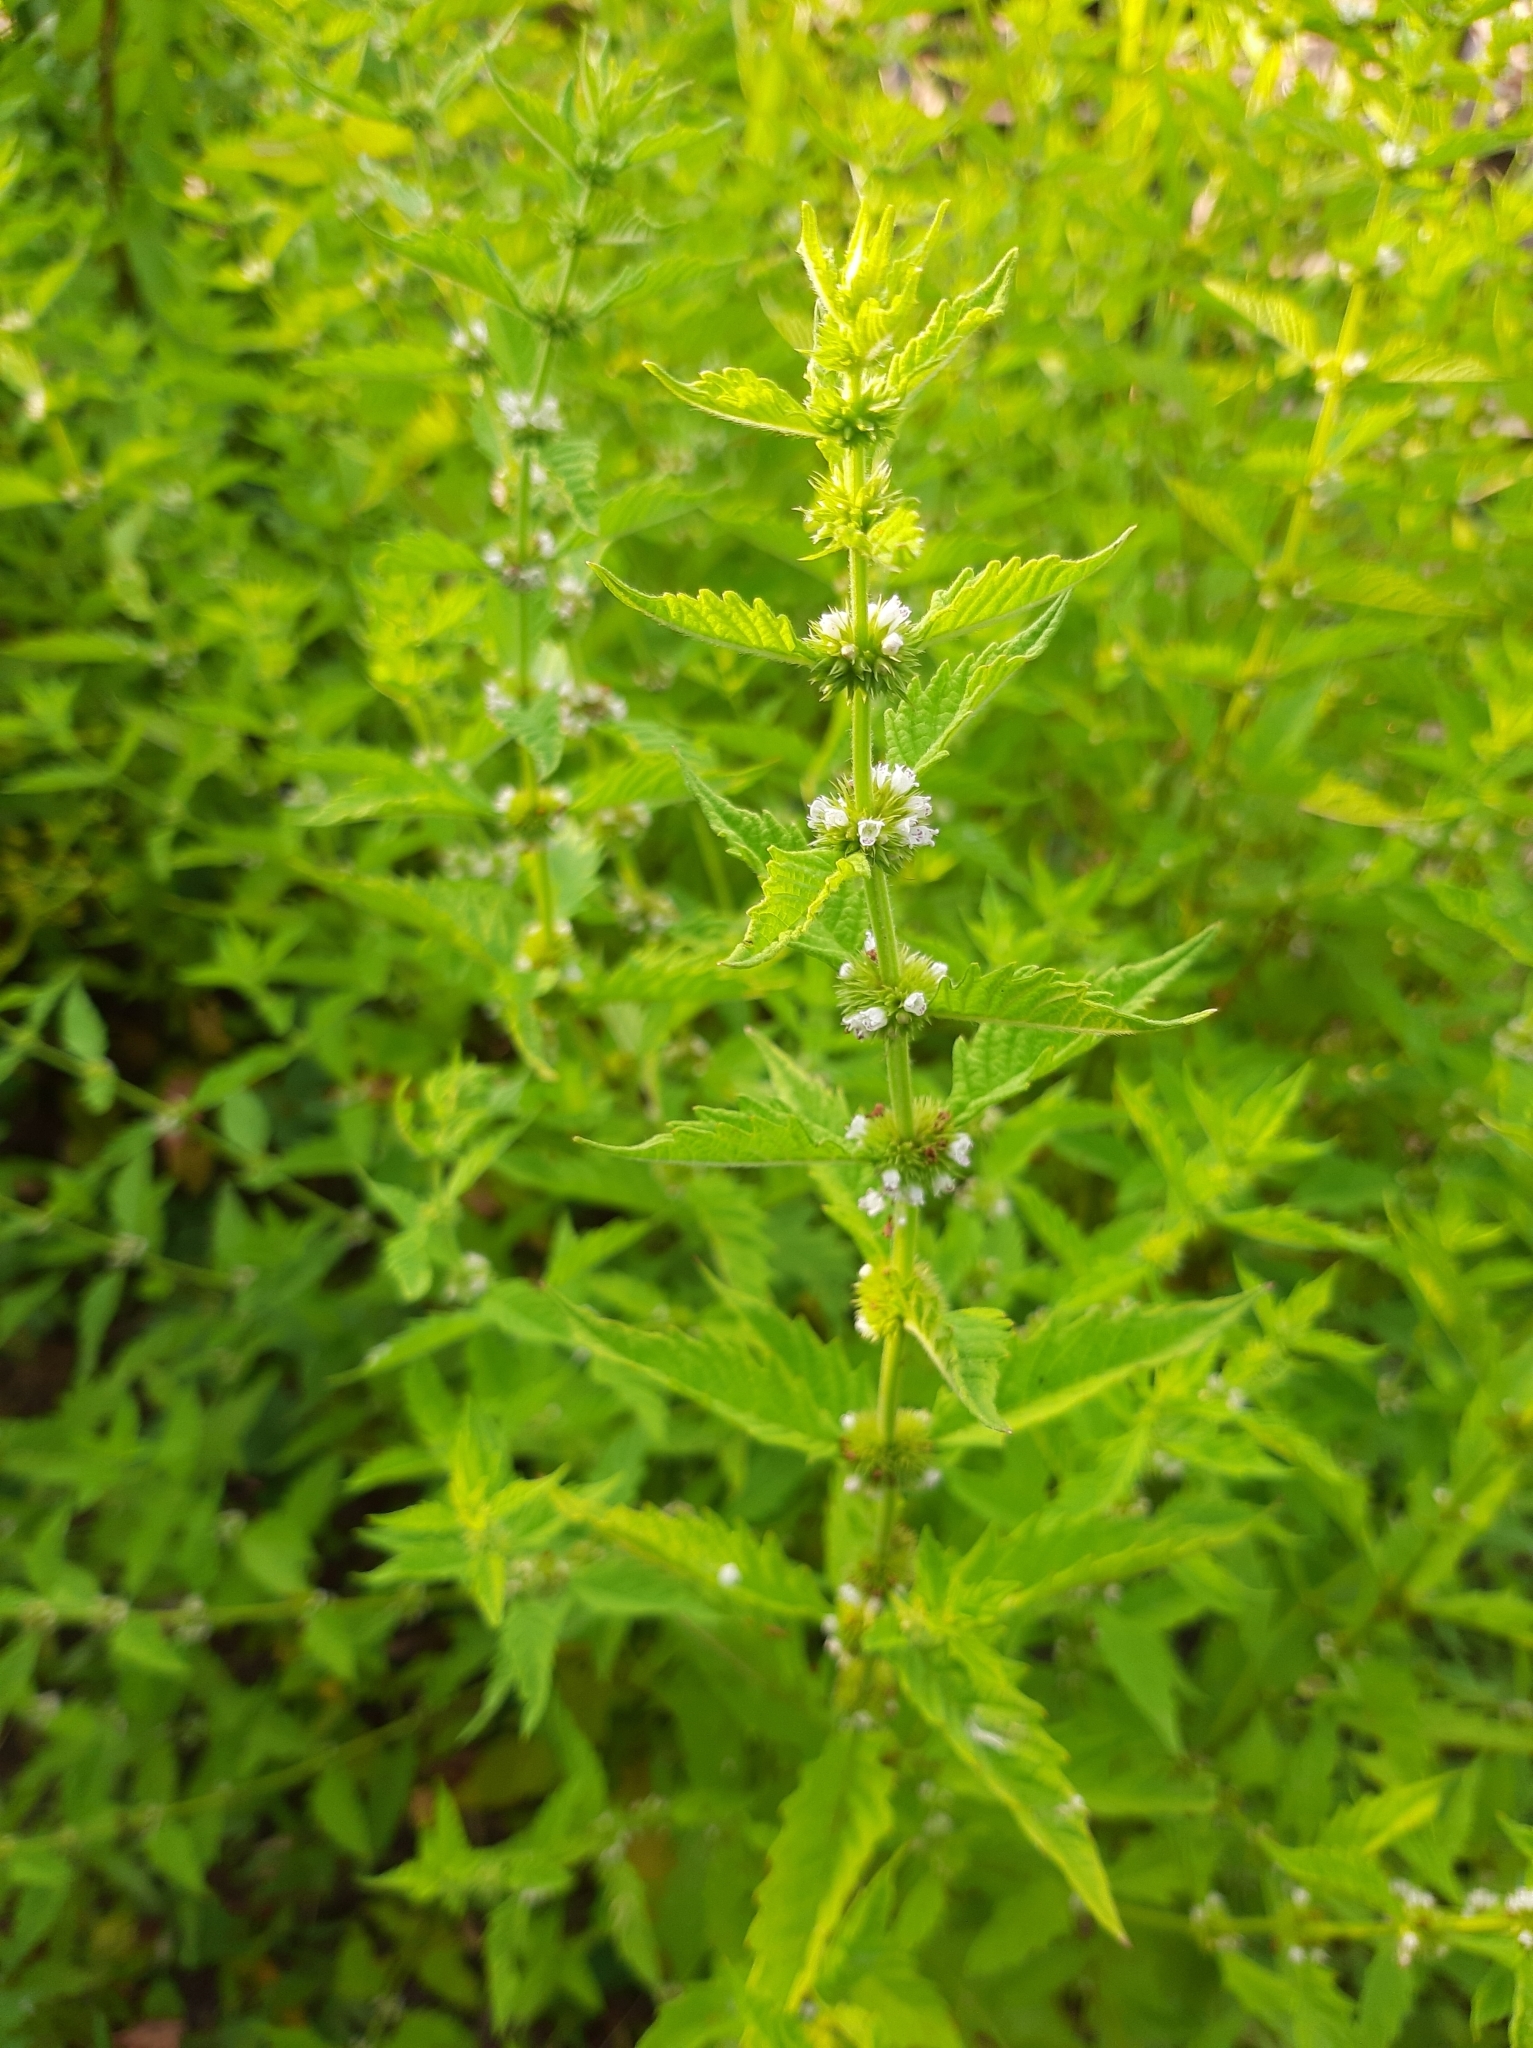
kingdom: Plantae
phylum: Tracheophyta
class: Magnoliopsida
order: Lamiales
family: Lamiaceae
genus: Lycopus
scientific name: Lycopus europaeus
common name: European bugleweed
